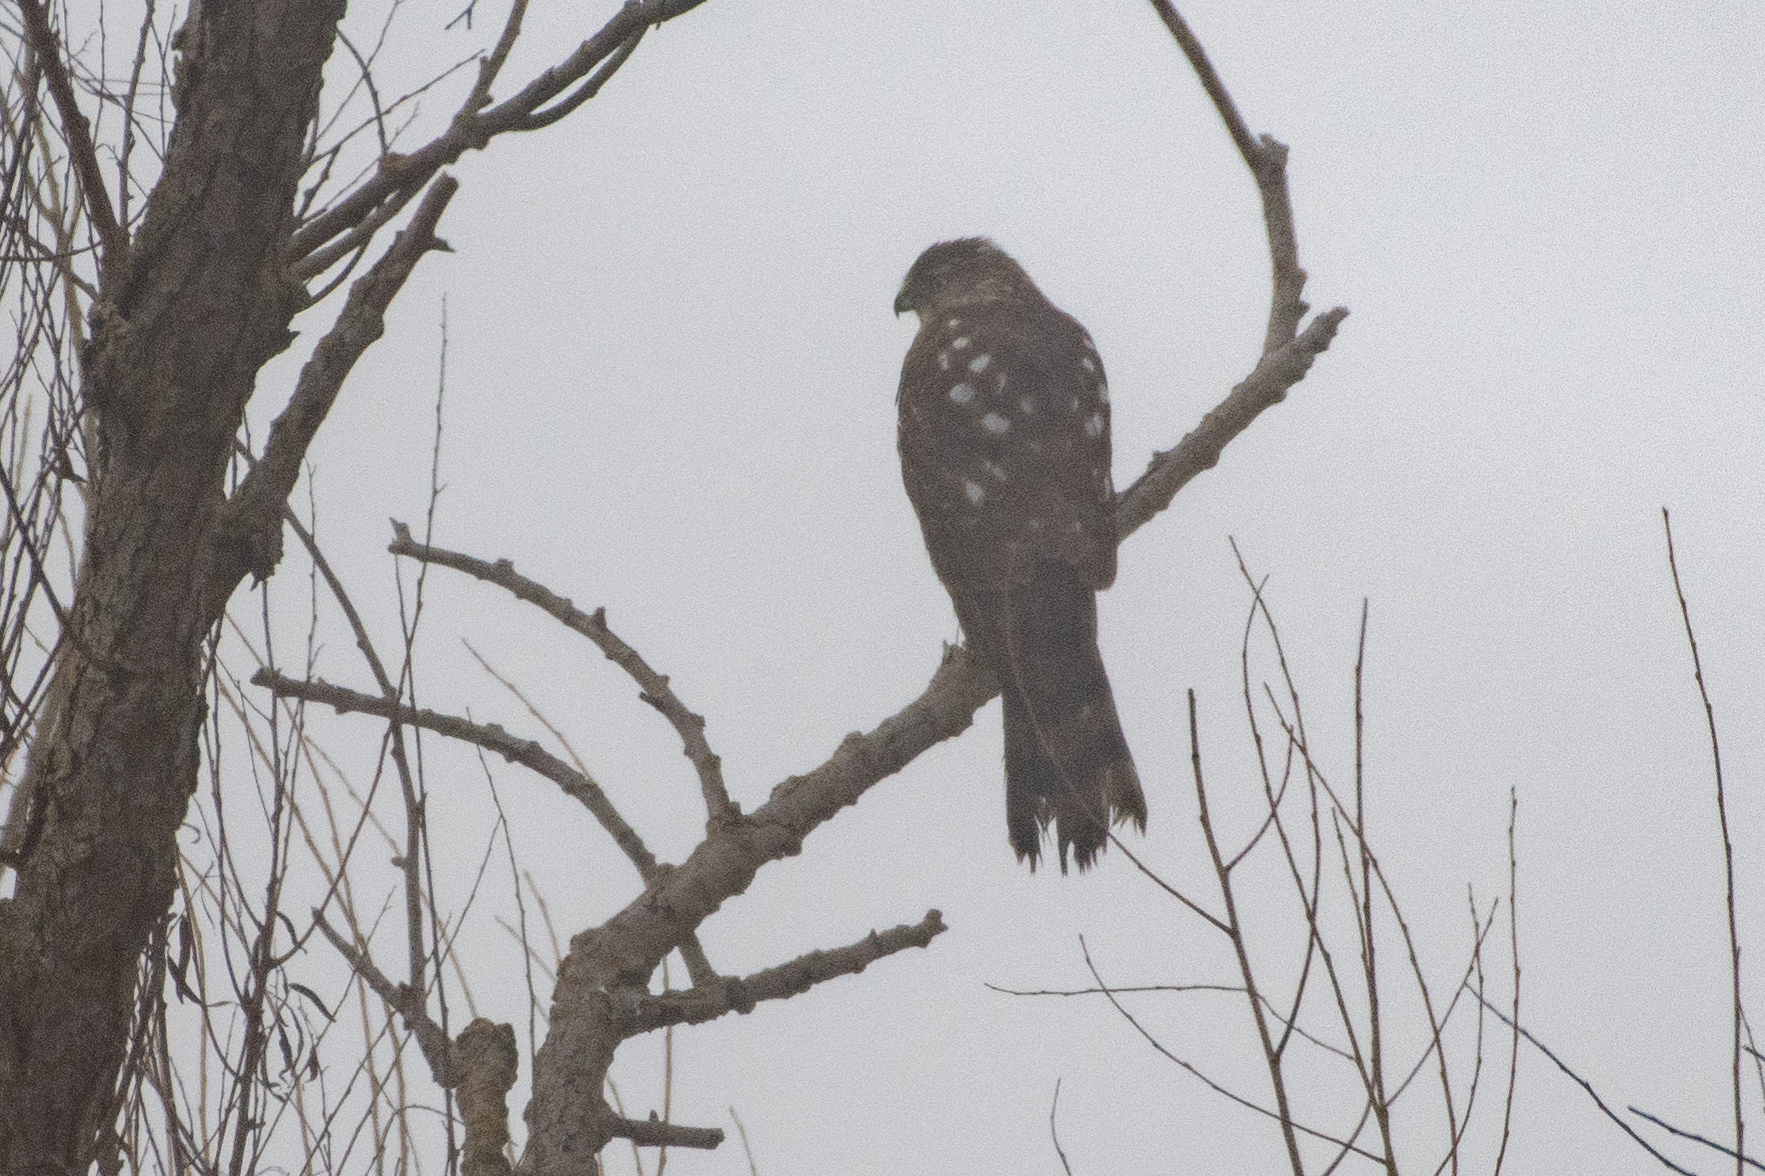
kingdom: Animalia
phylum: Chordata
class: Aves
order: Accipitriformes
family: Accipitridae
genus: Accipiter
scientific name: Accipiter cooperii
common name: Cooper's hawk
